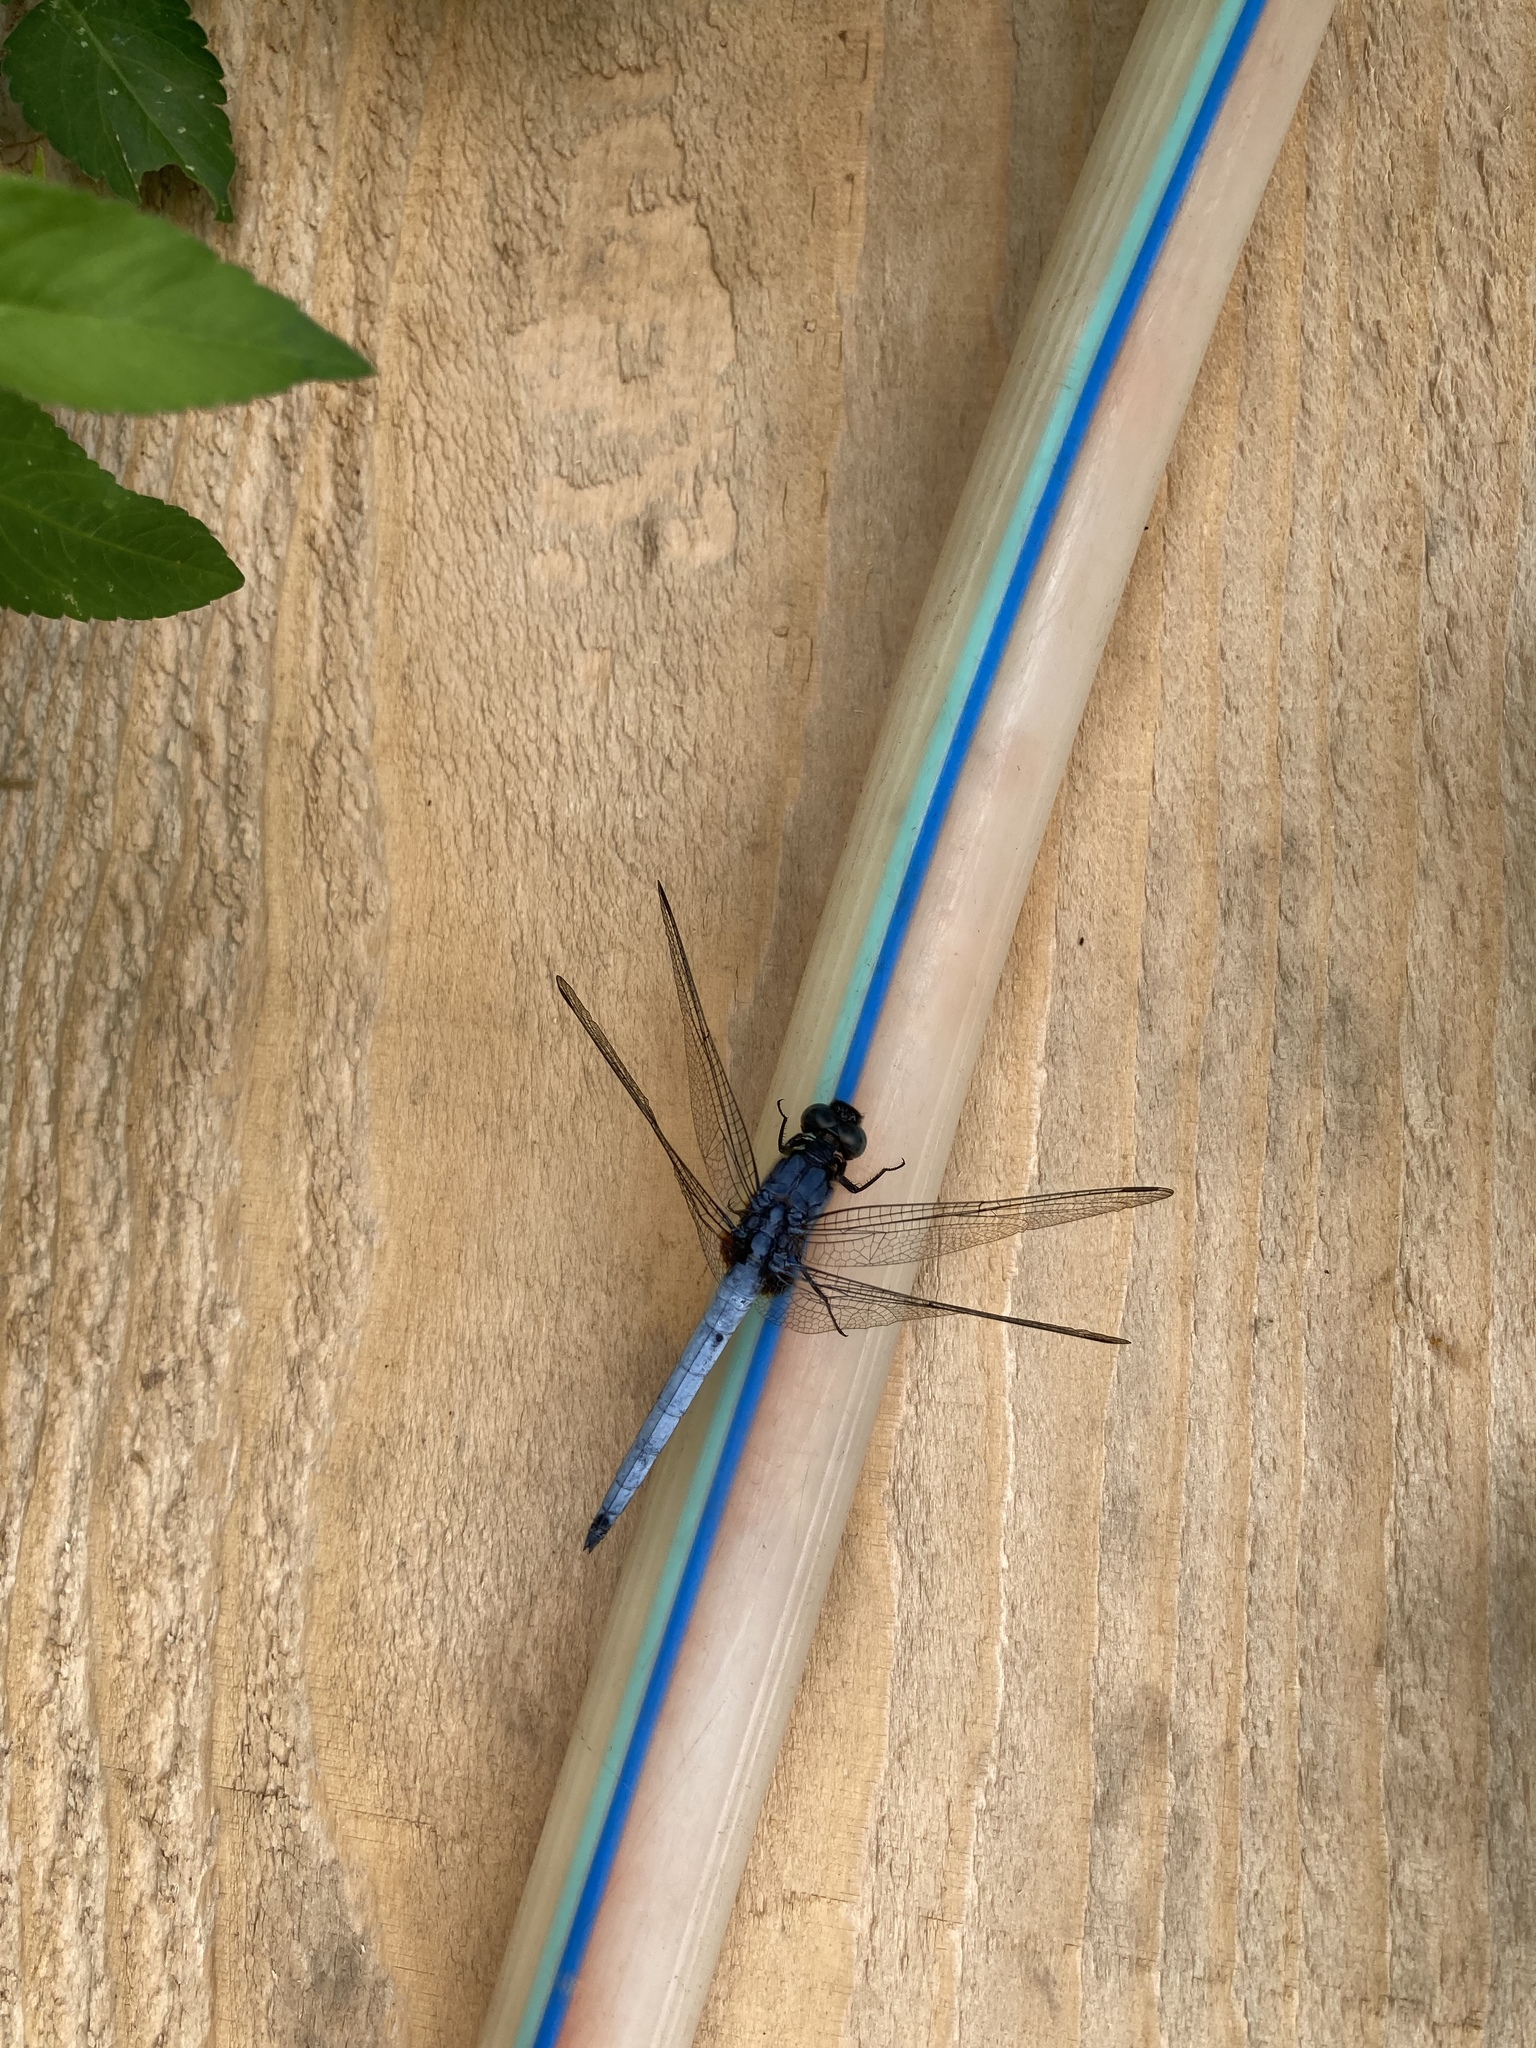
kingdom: Animalia
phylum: Arthropoda
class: Insecta
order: Odonata
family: Libellulidae
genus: Orthetrum
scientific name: Orthetrum glaucum
